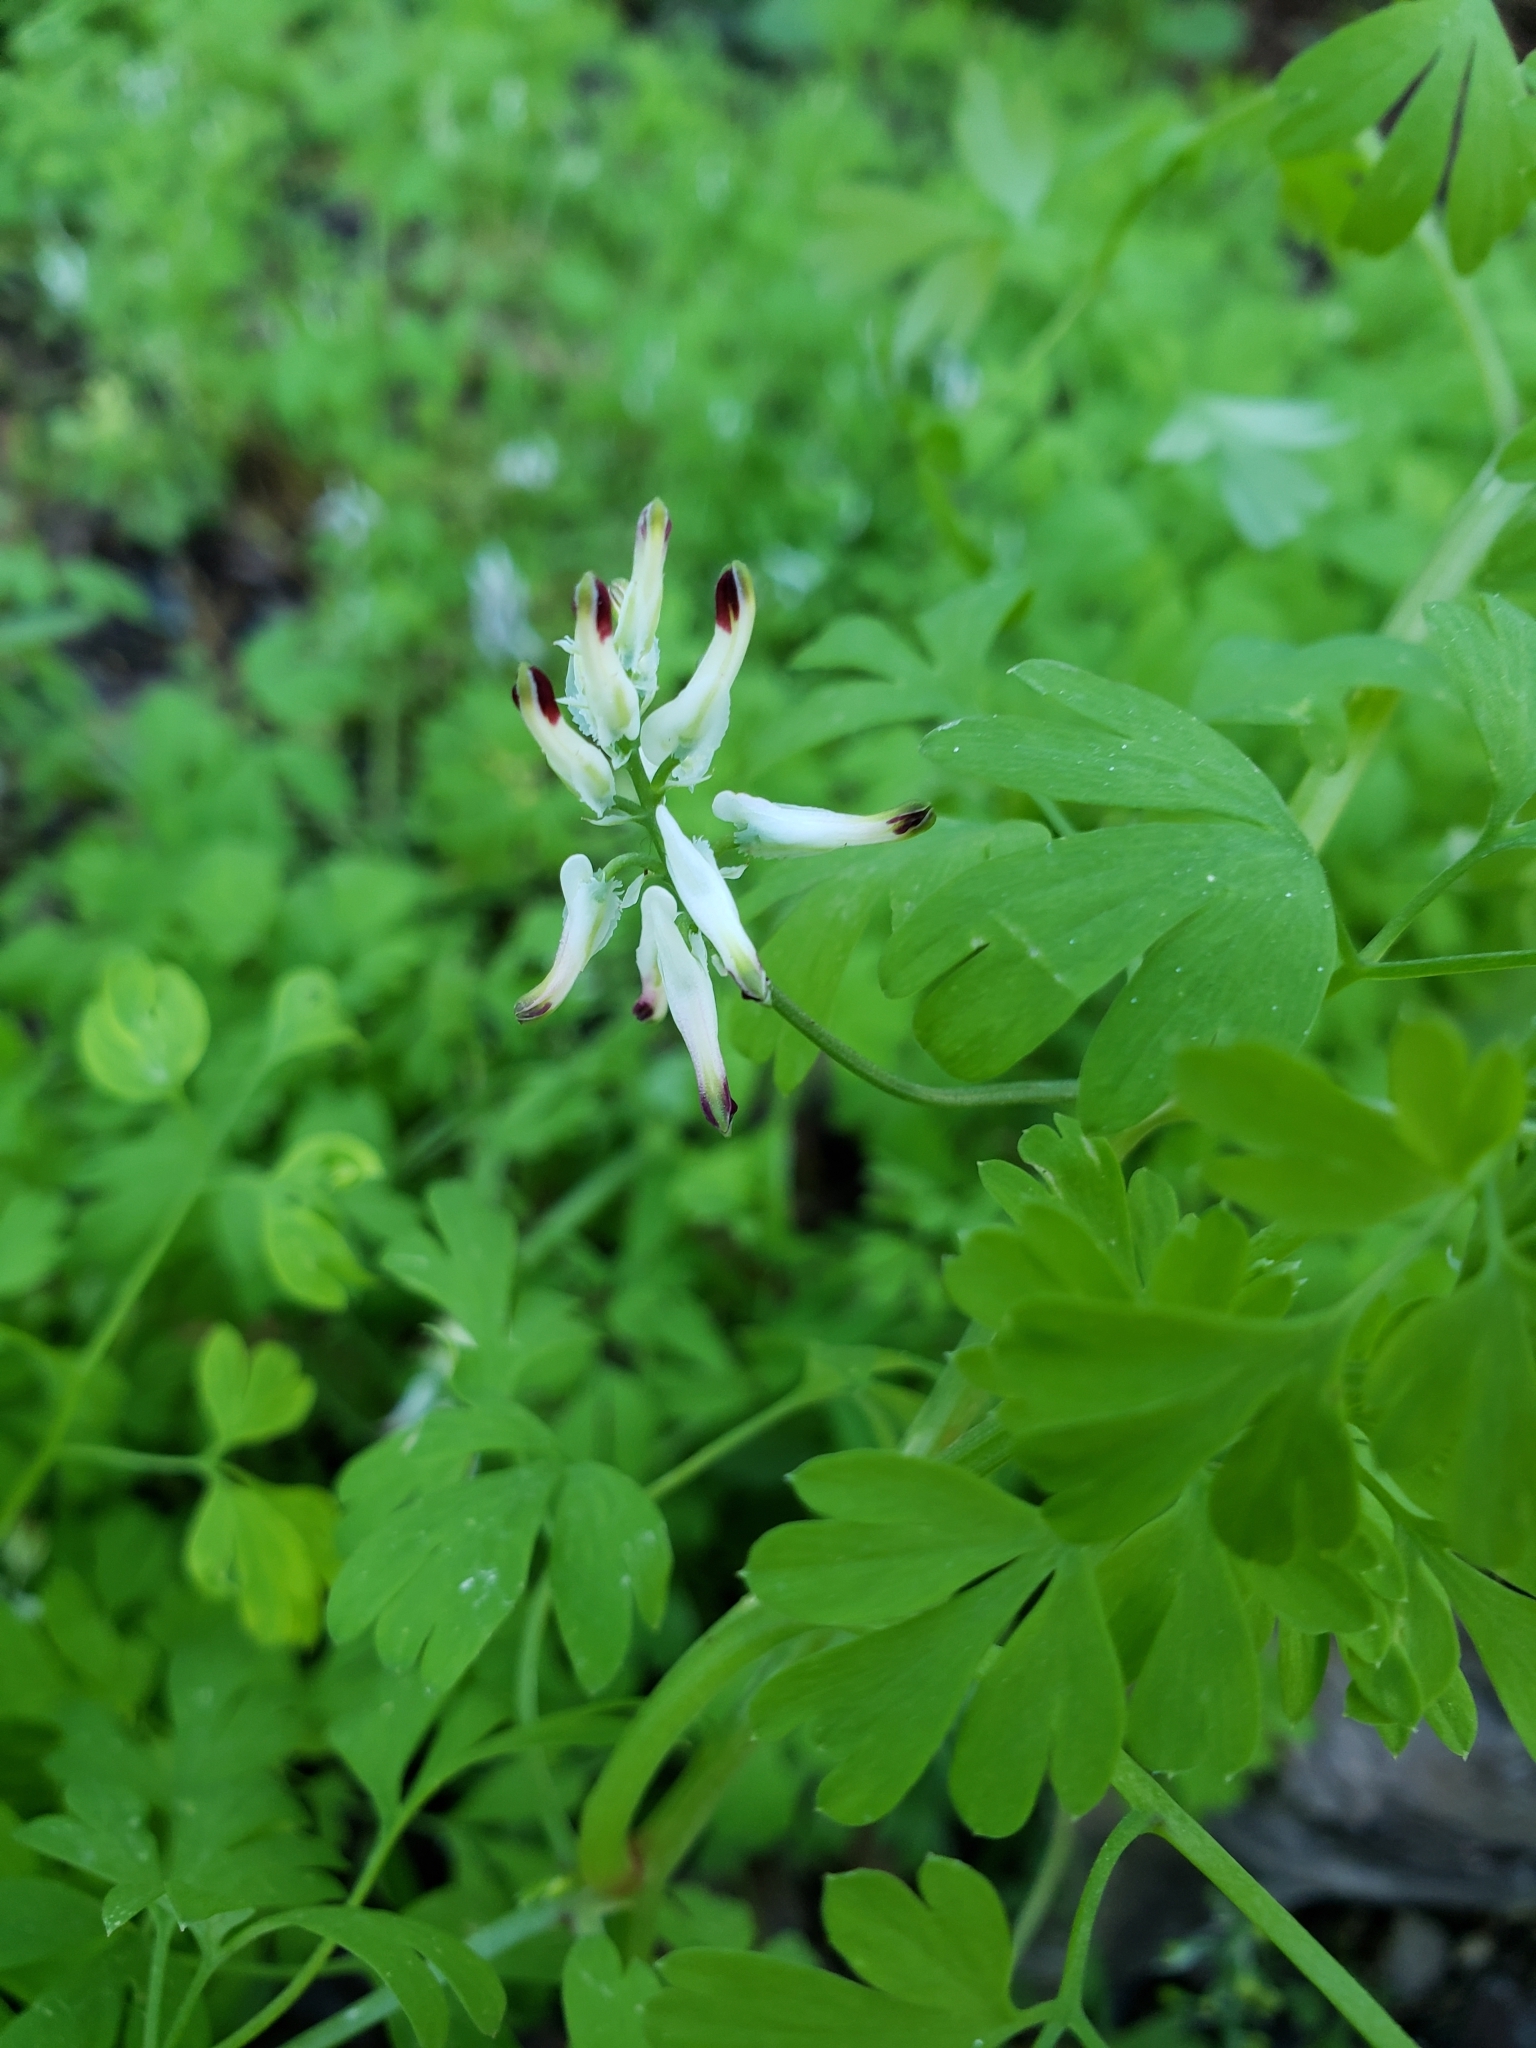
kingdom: Plantae
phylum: Tracheophyta
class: Magnoliopsida
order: Ranunculales
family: Papaveraceae
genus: Fumaria
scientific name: Fumaria capreolata
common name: White ramping-fumitory
